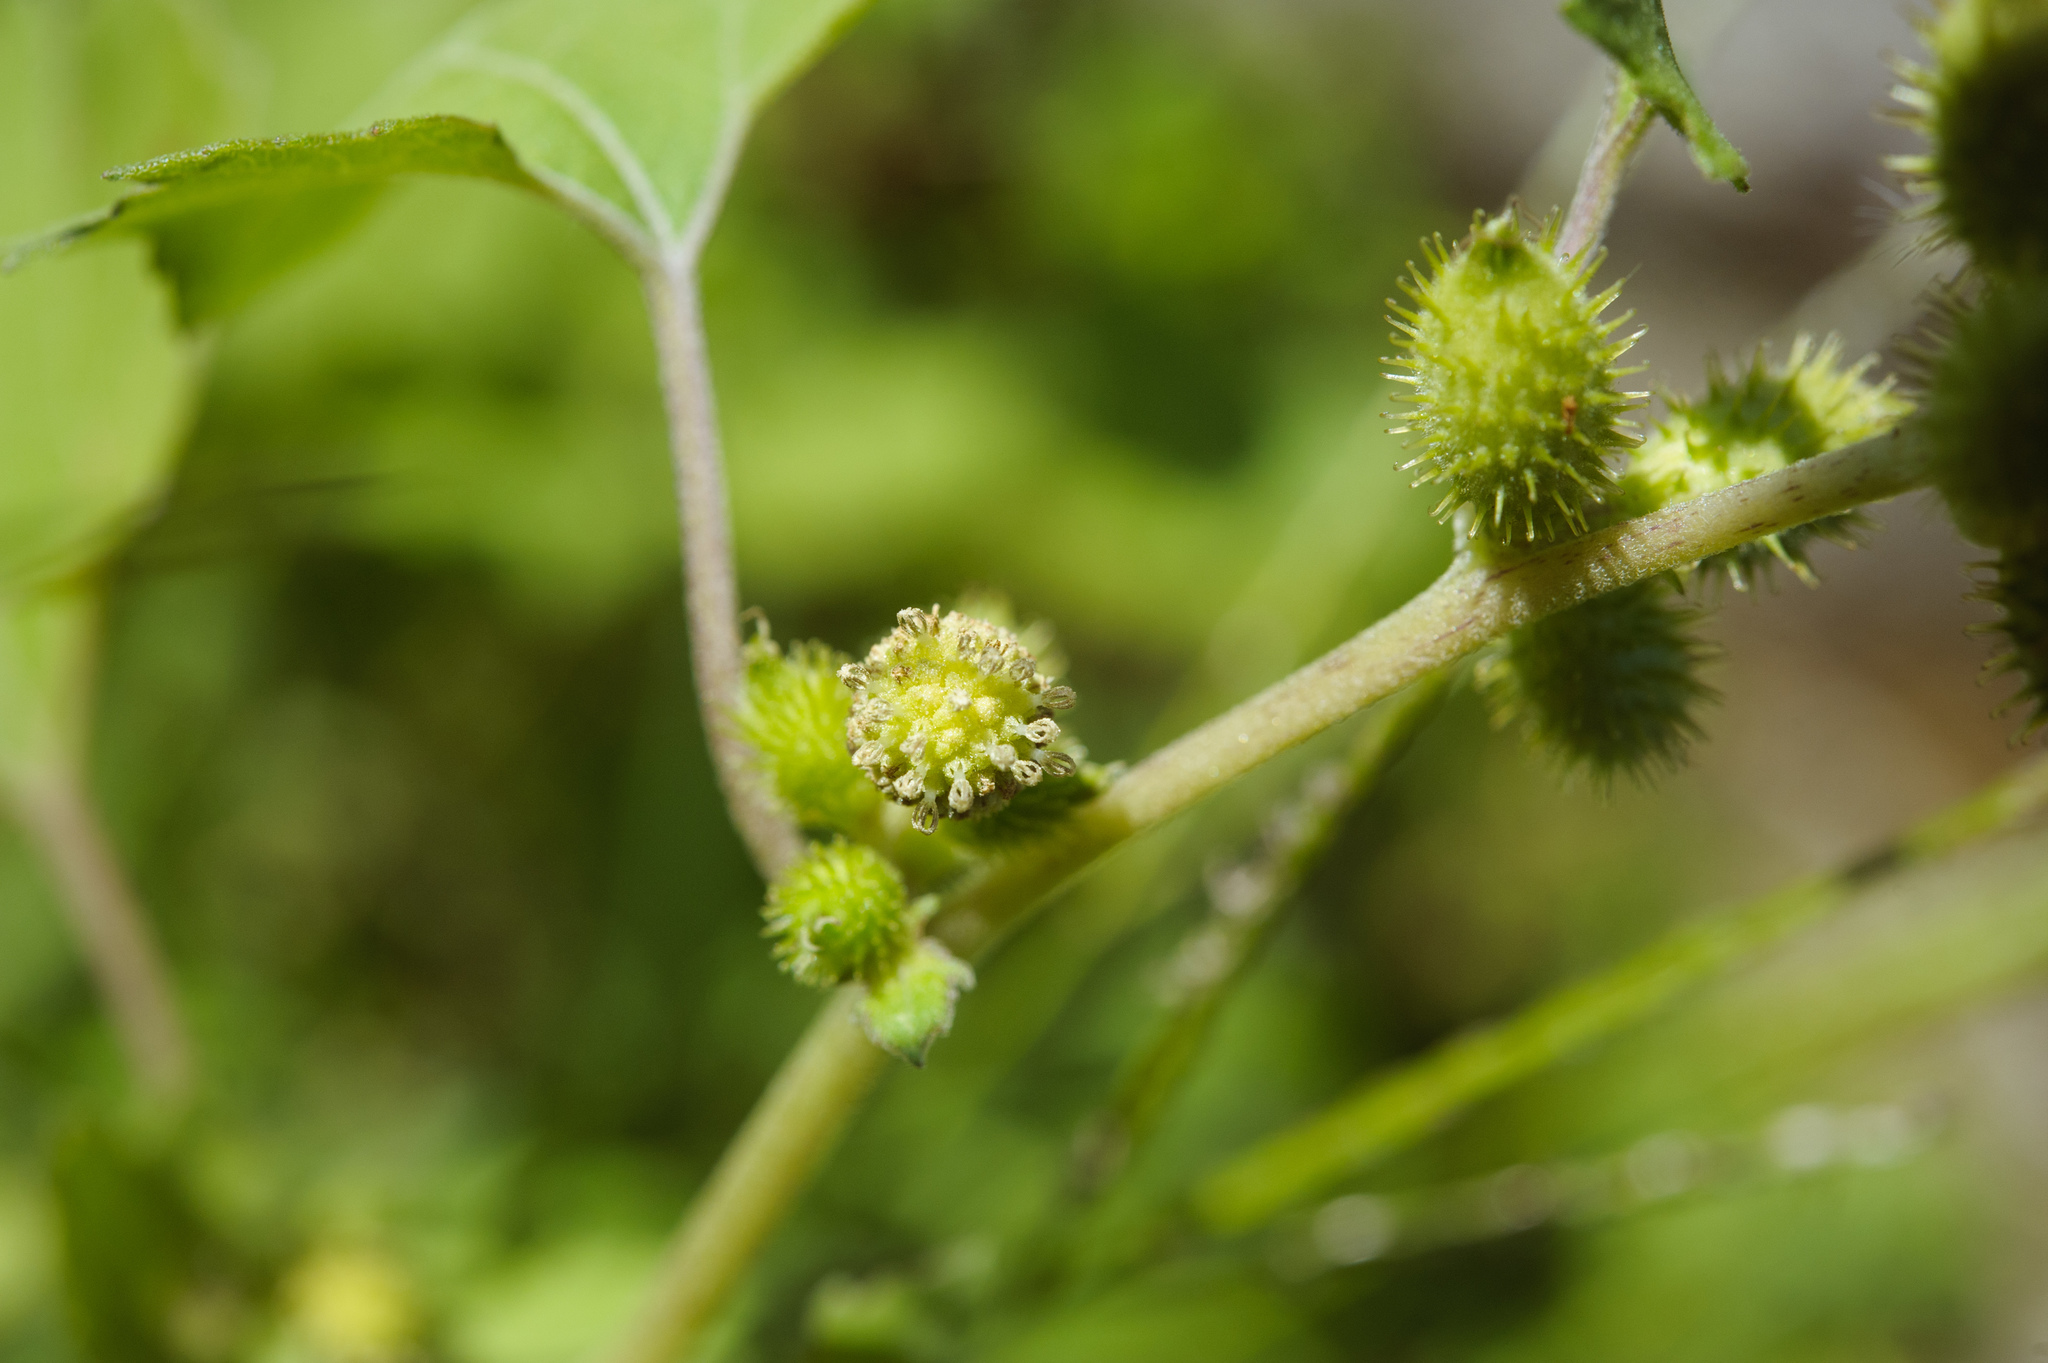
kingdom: Plantae
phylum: Tracheophyta
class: Magnoliopsida
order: Asterales
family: Asteraceae
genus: Xanthium
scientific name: Xanthium strumarium
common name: Rough cocklebur
